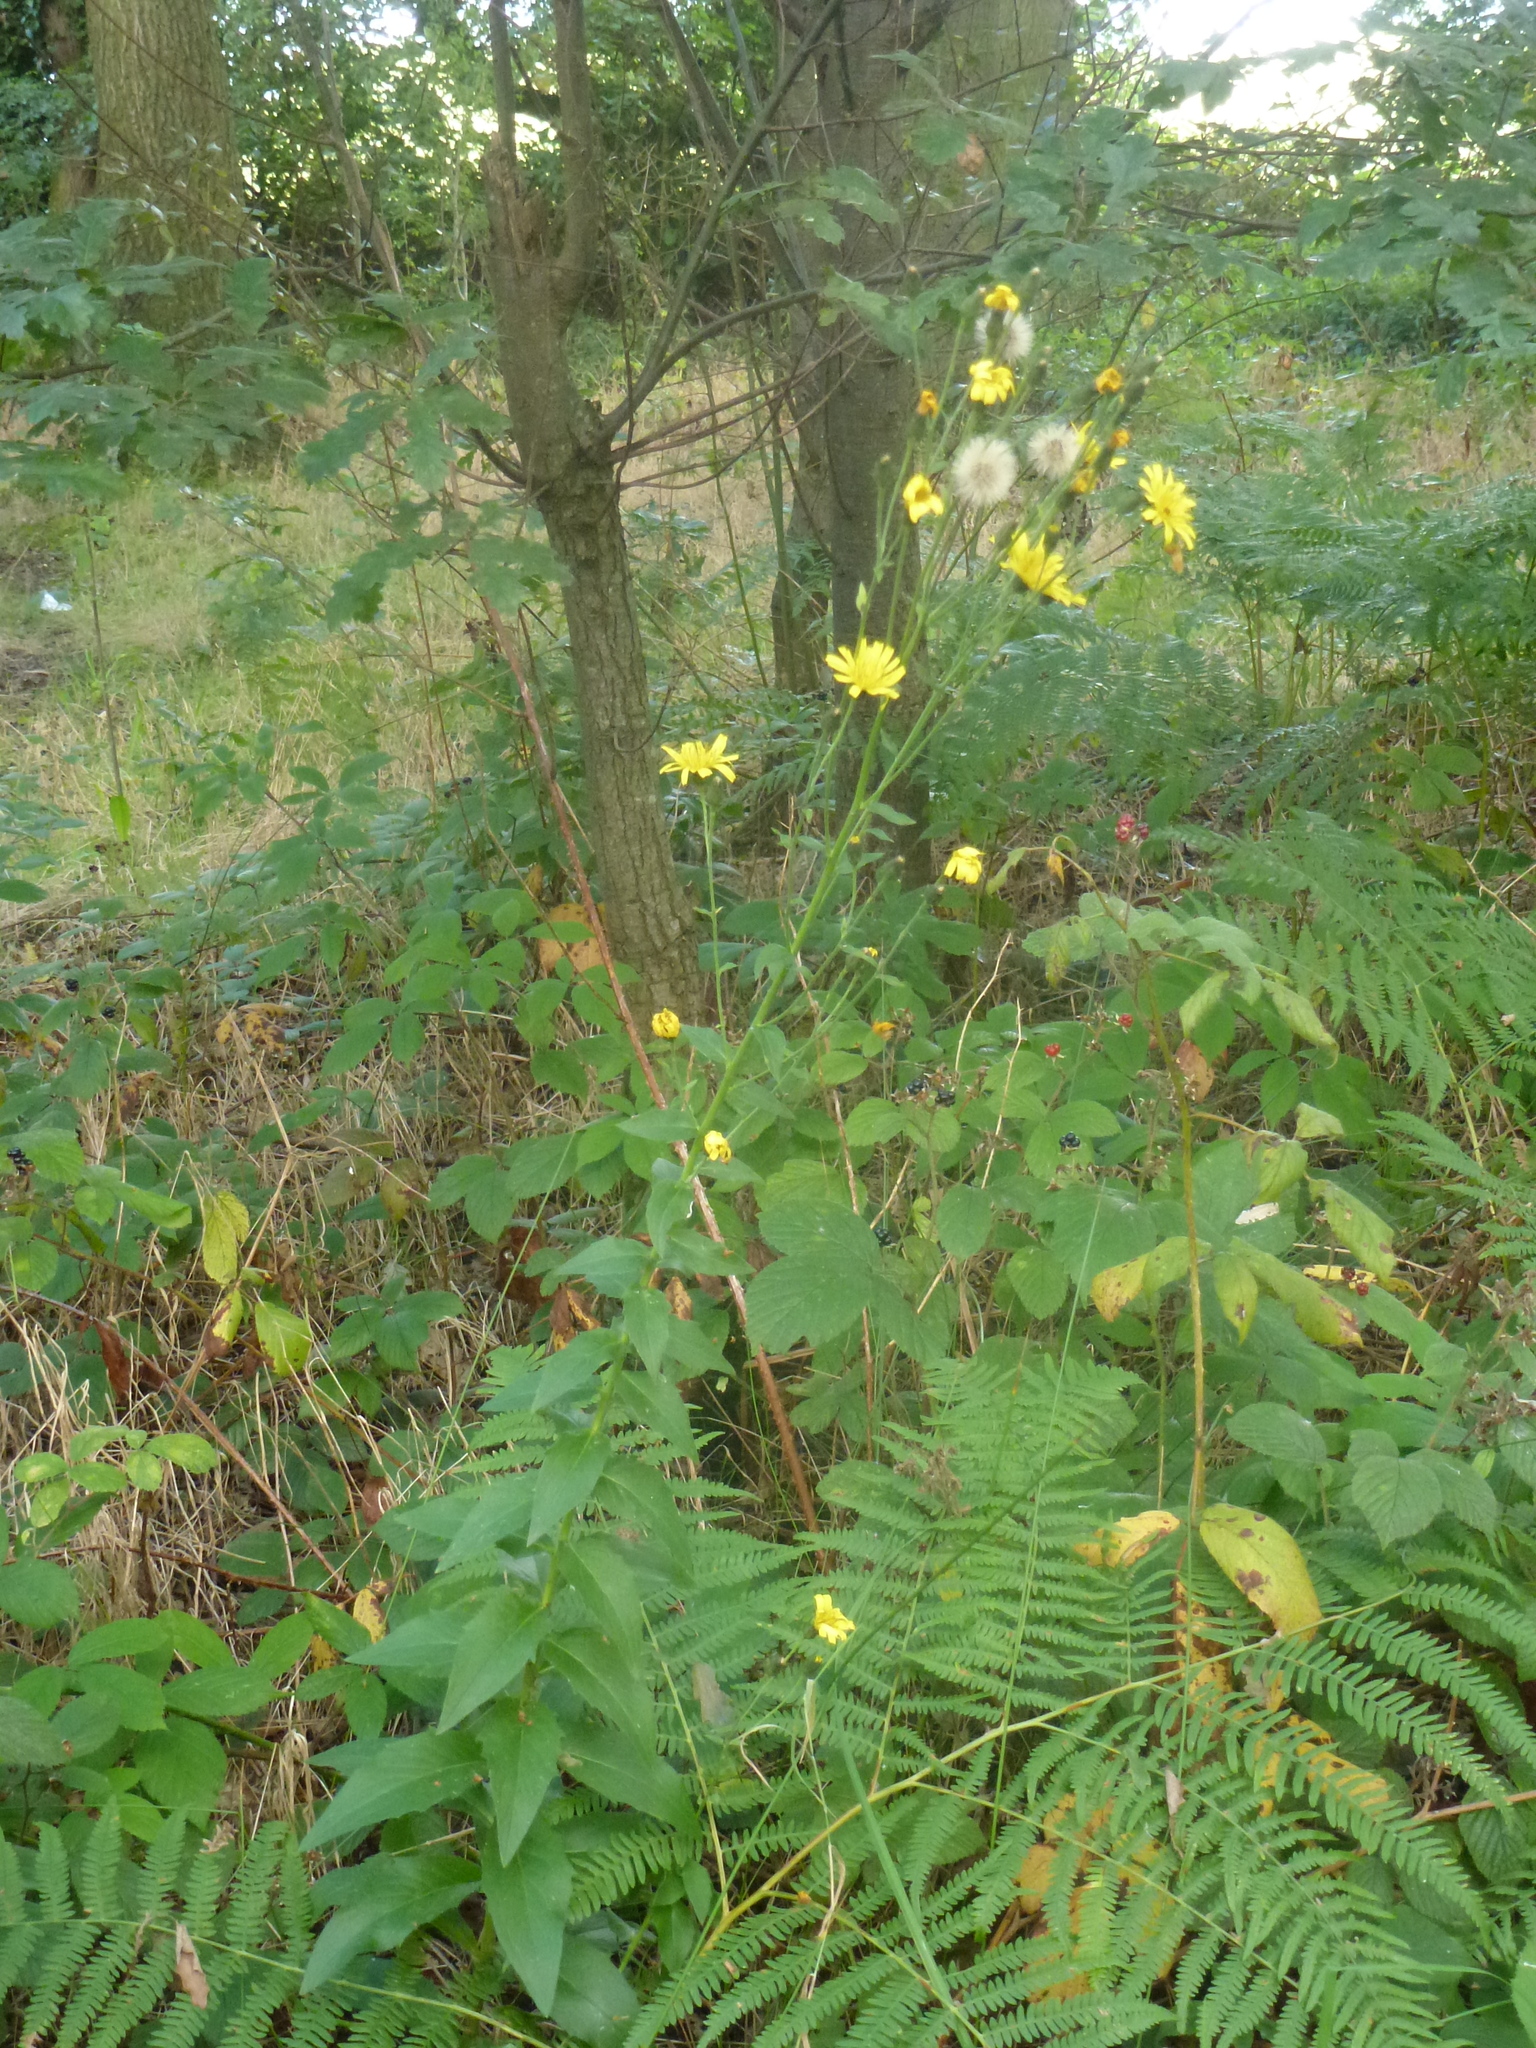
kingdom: Plantae
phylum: Tracheophyta
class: Magnoliopsida
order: Asterales
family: Asteraceae
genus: Hieracium
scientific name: Hieracium sabaudum
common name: New england hawkweed
